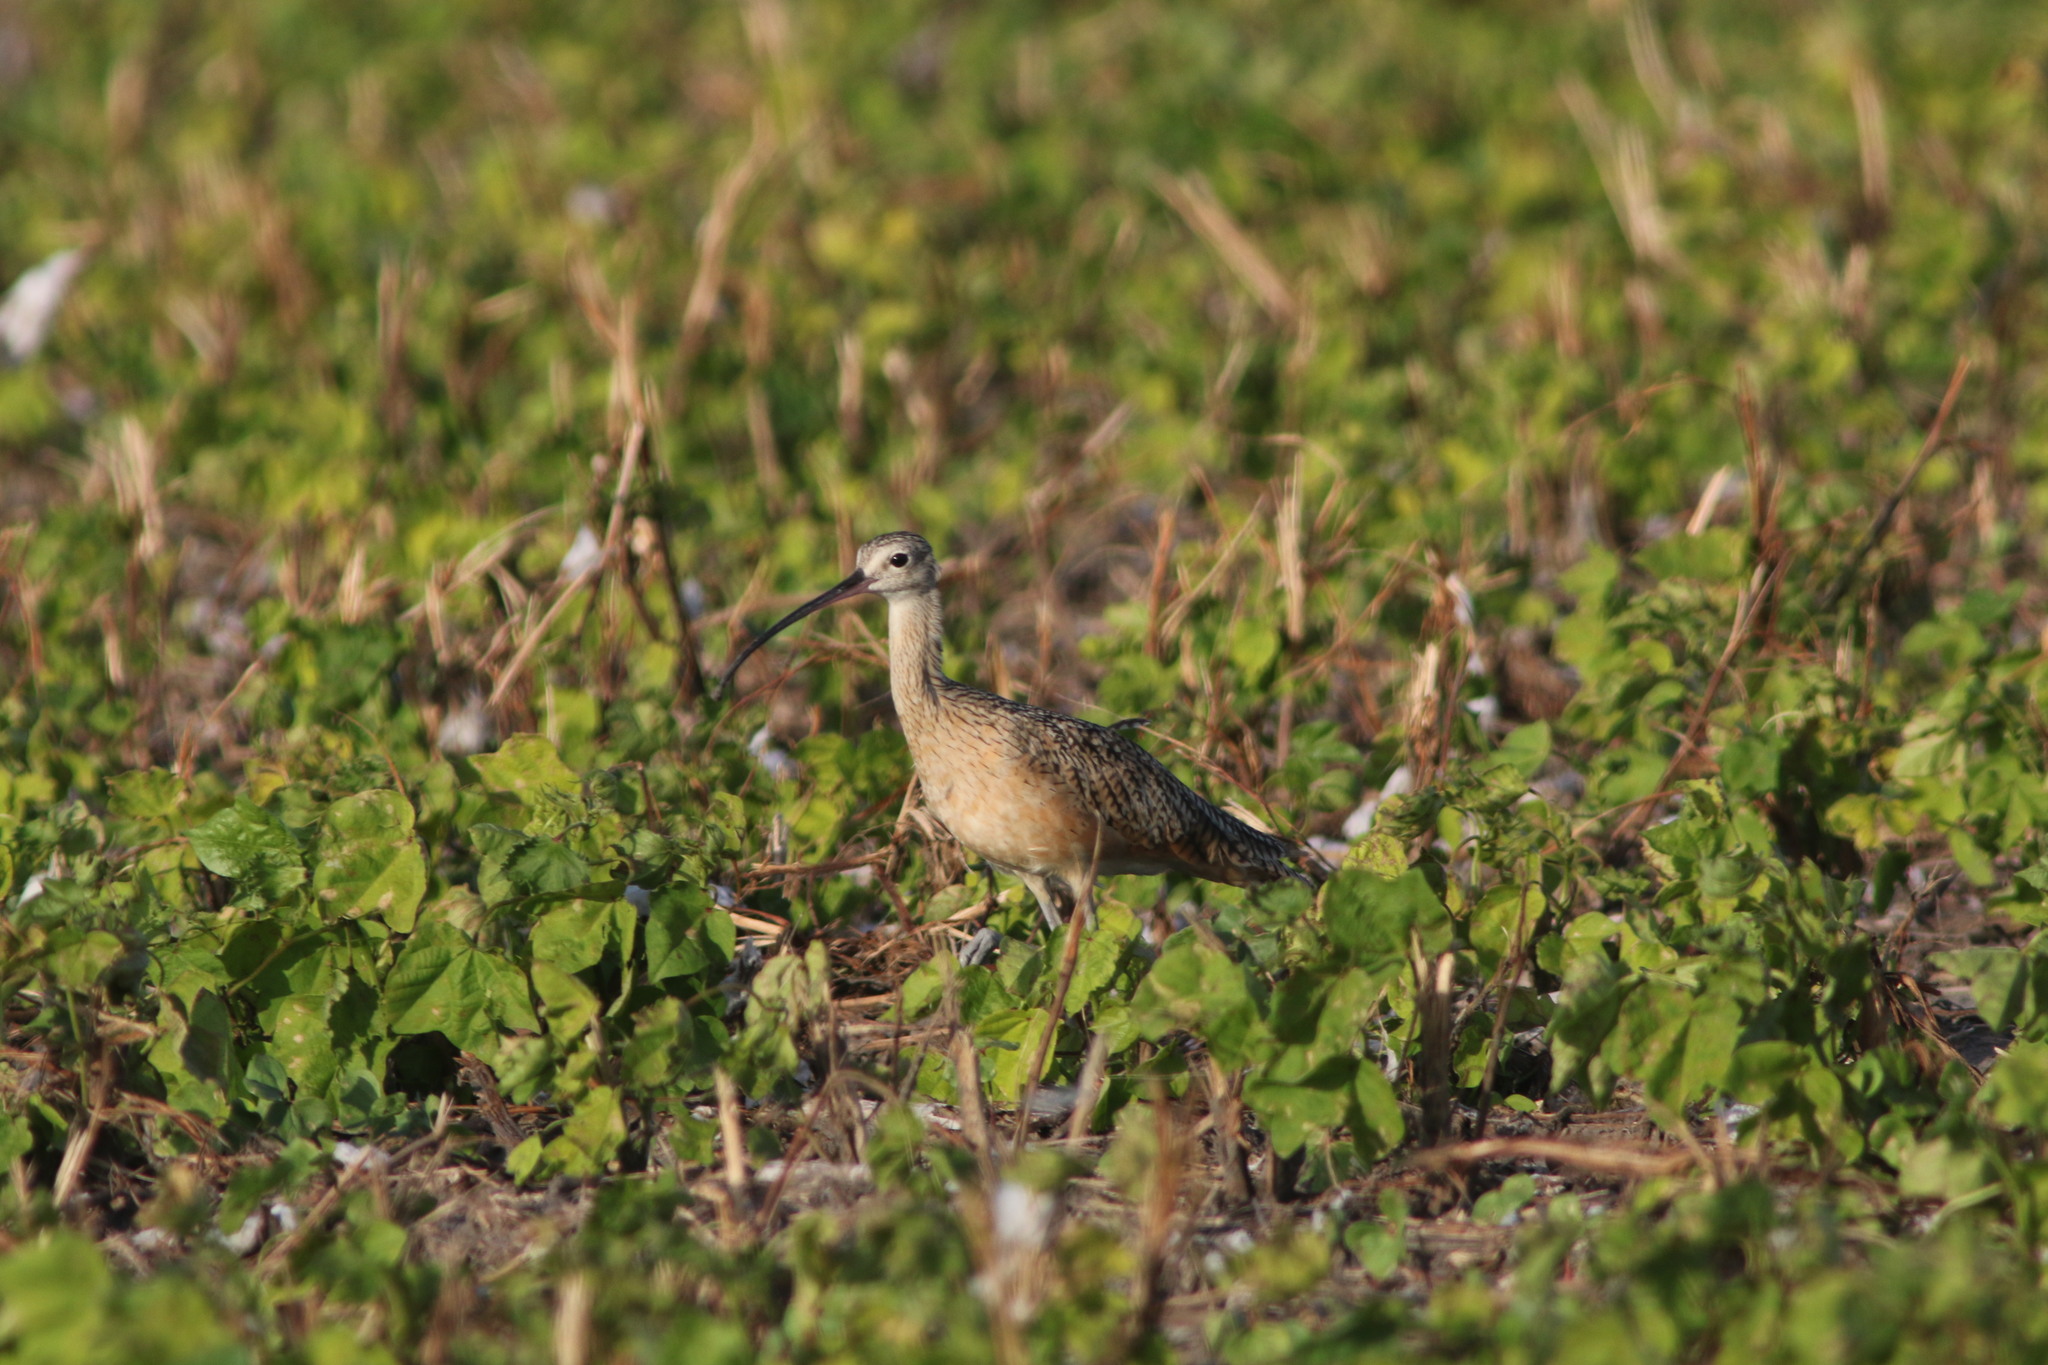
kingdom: Animalia
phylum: Chordata
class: Aves
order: Charadriiformes
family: Scolopacidae
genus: Numenius
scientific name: Numenius americanus
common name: Long-billed curlew
